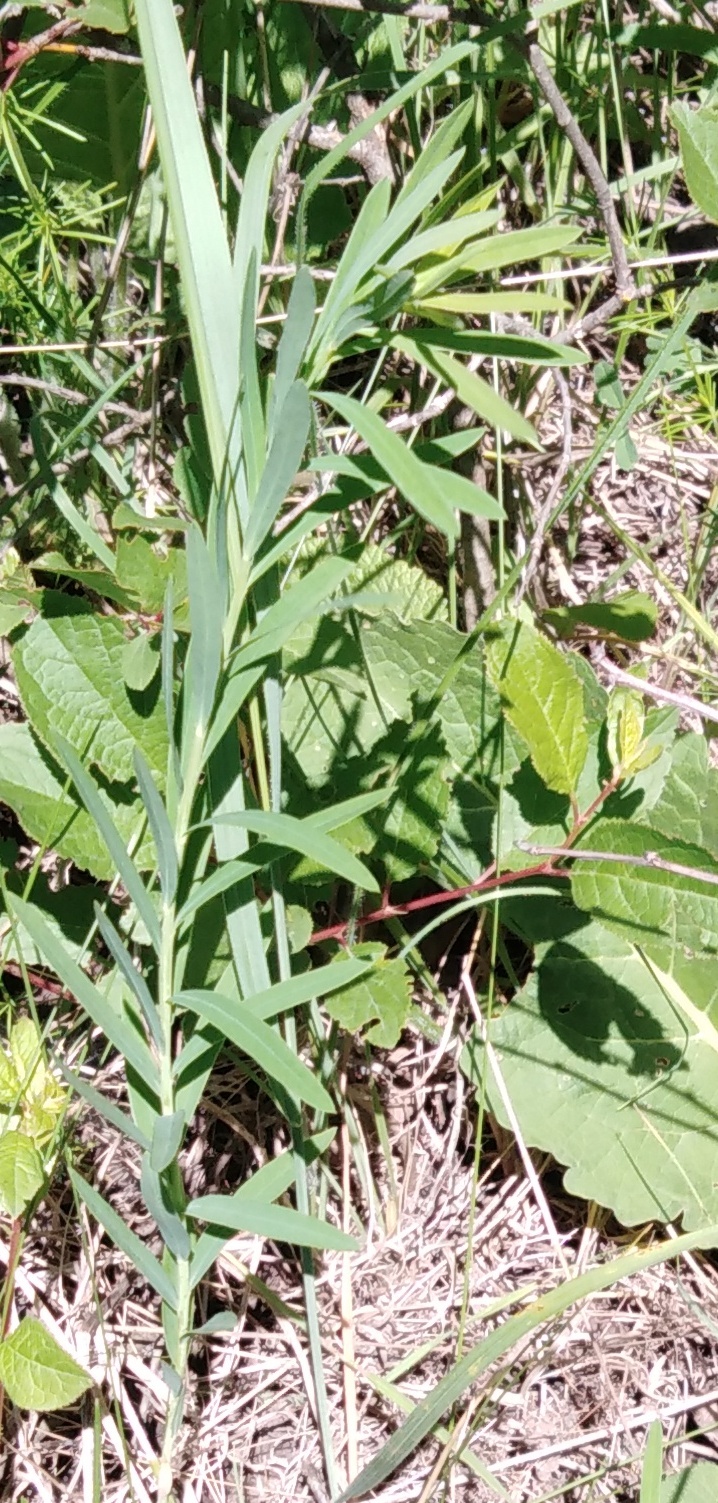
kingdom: Plantae
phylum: Tracheophyta
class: Magnoliopsida
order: Malpighiales
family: Euphorbiaceae
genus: Euphorbia
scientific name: Euphorbia virgata
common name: Leafy spurge
